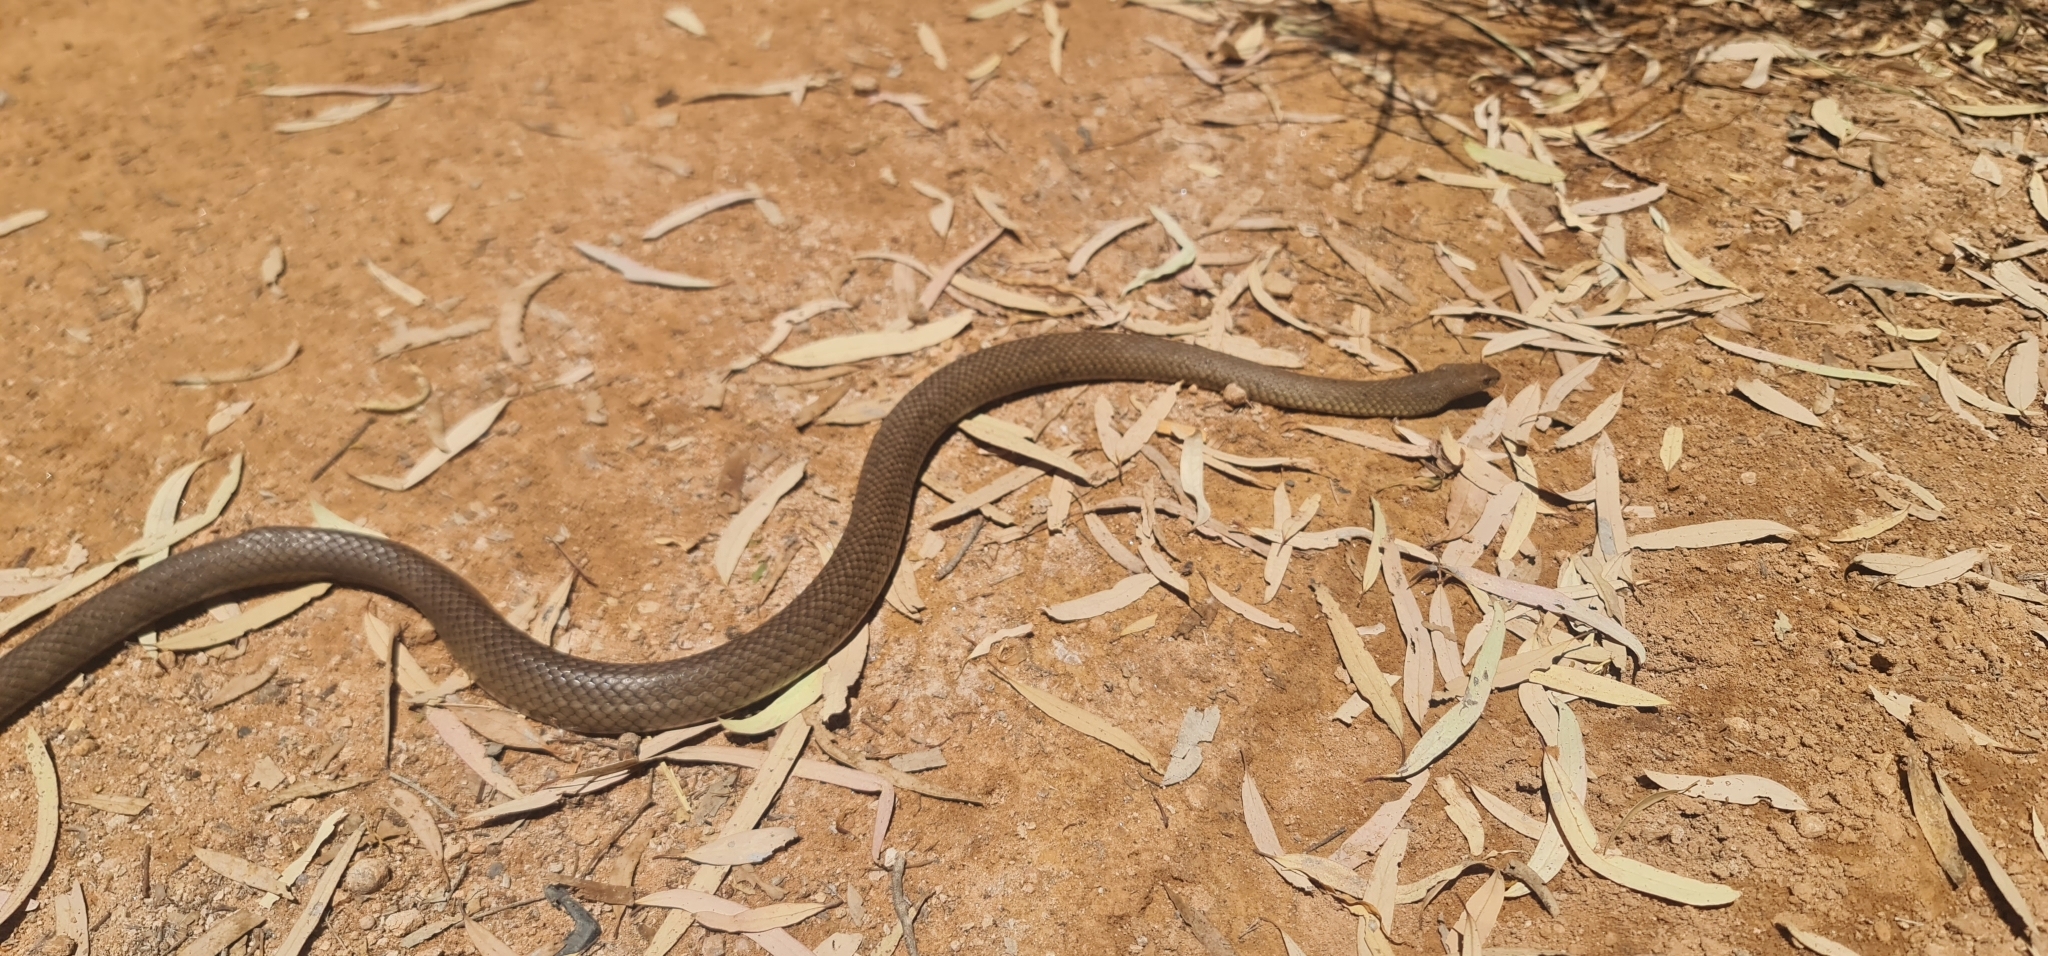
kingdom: Animalia
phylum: Chordata
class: Squamata
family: Elapidae
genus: Pseudonaja
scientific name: Pseudonaja textilis
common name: Eastern brown snake
